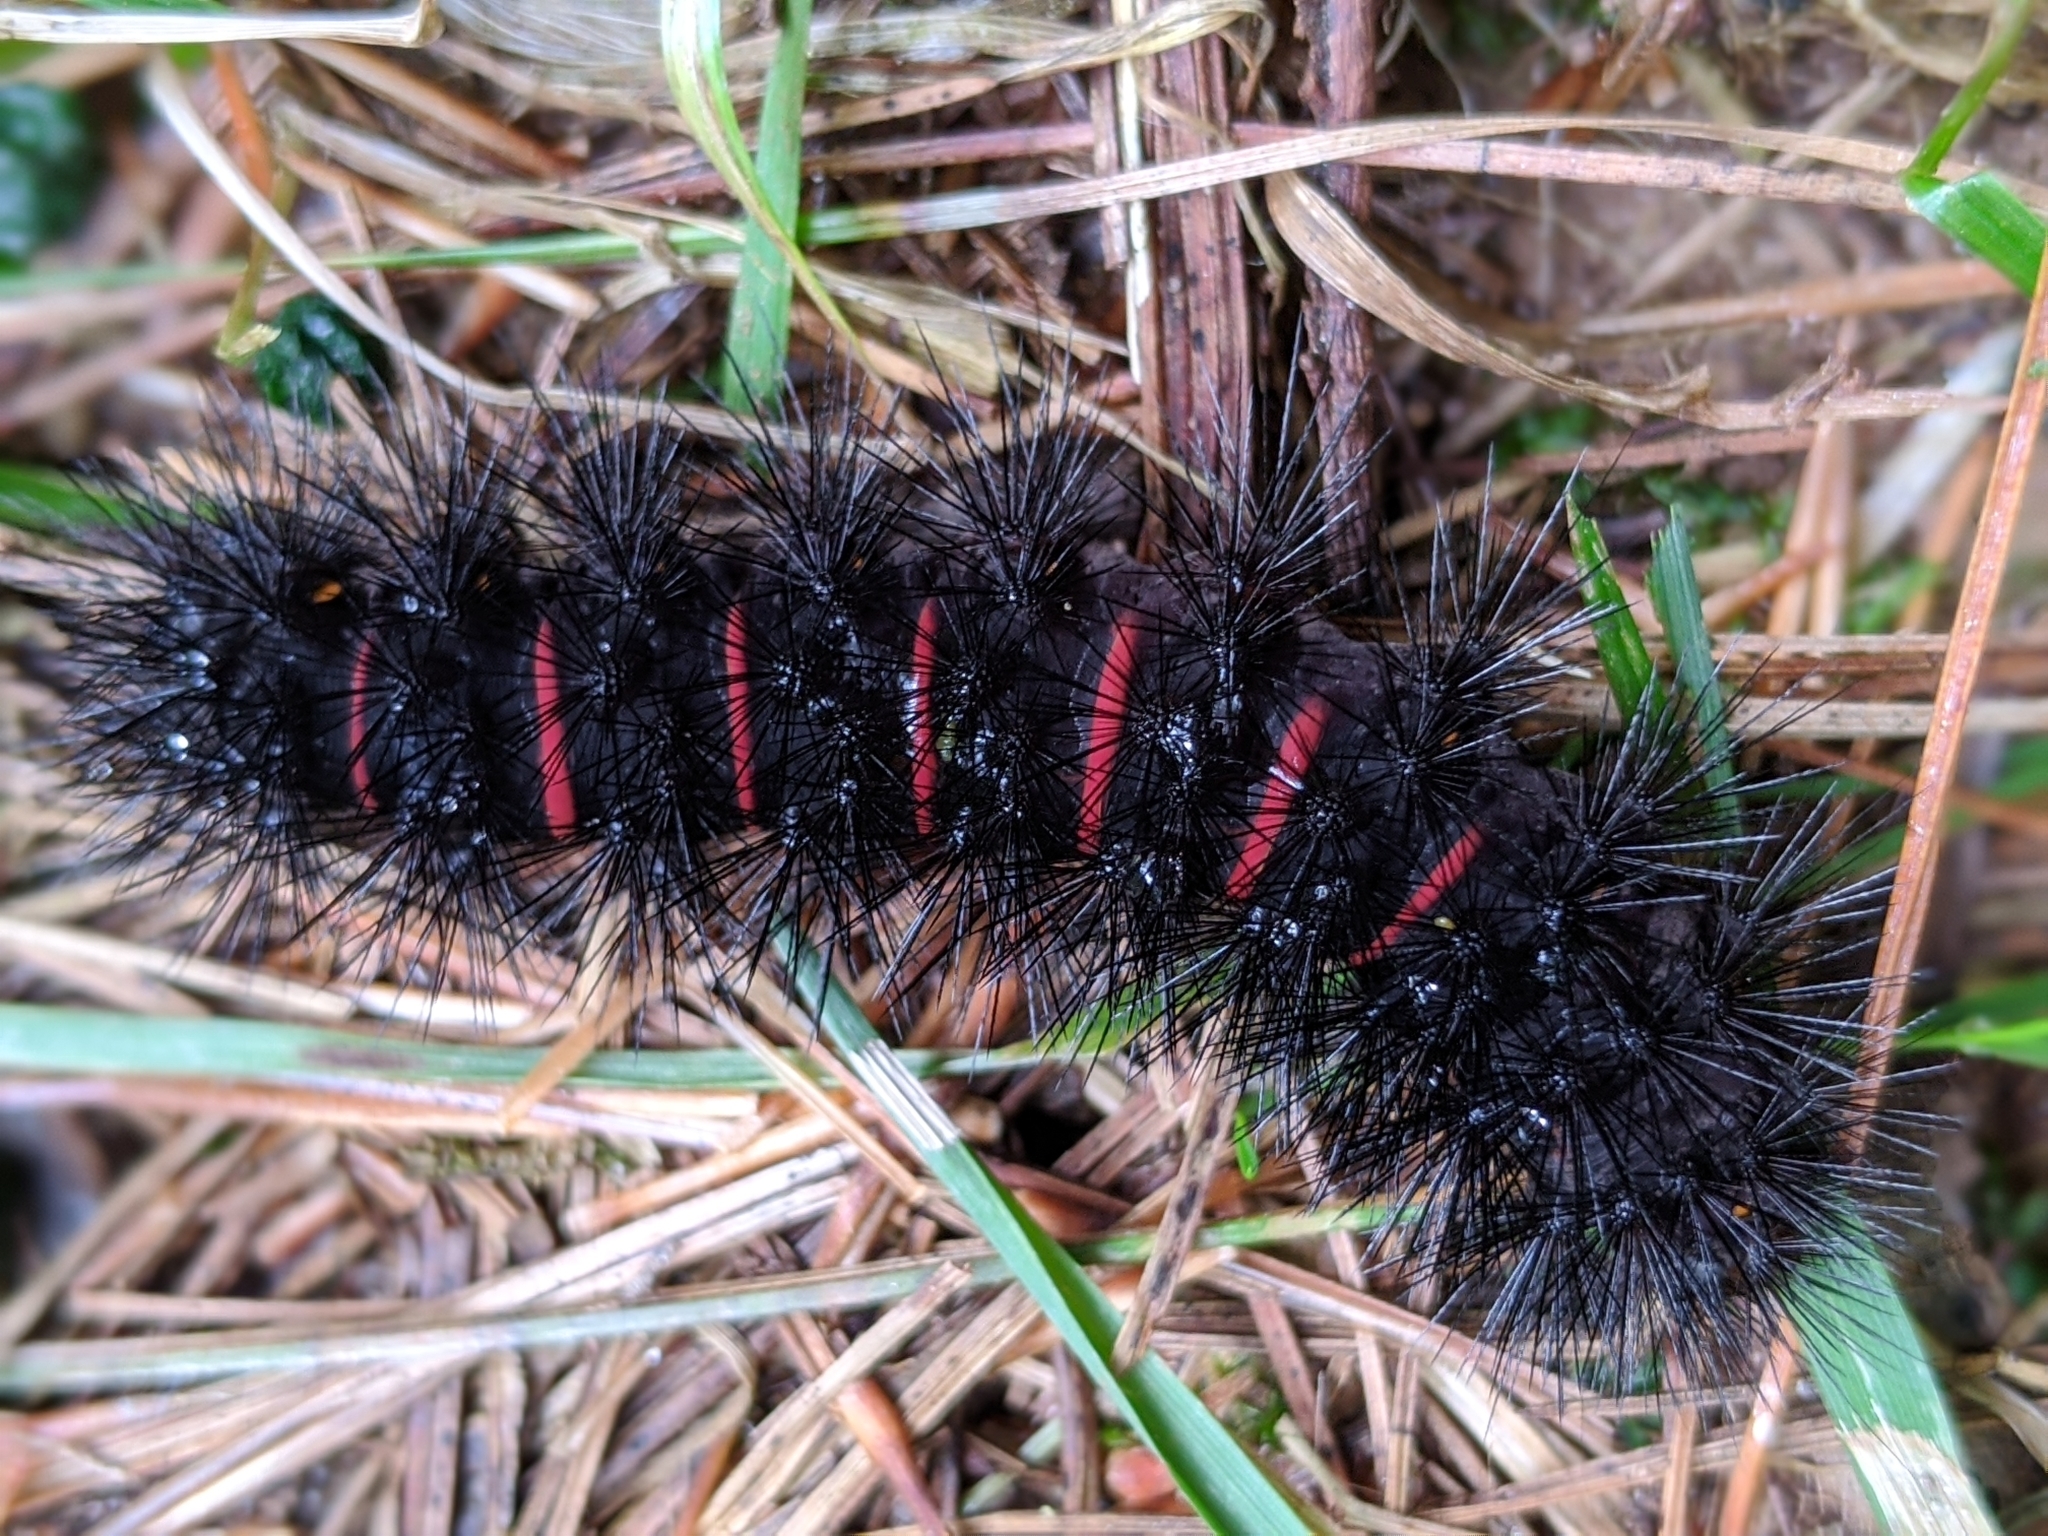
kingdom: Animalia
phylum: Arthropoda
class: Insecta
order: Lepidoptera
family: Erebidae
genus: Hypercompe
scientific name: Hypercompe scribonia
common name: Giant leopard moth
